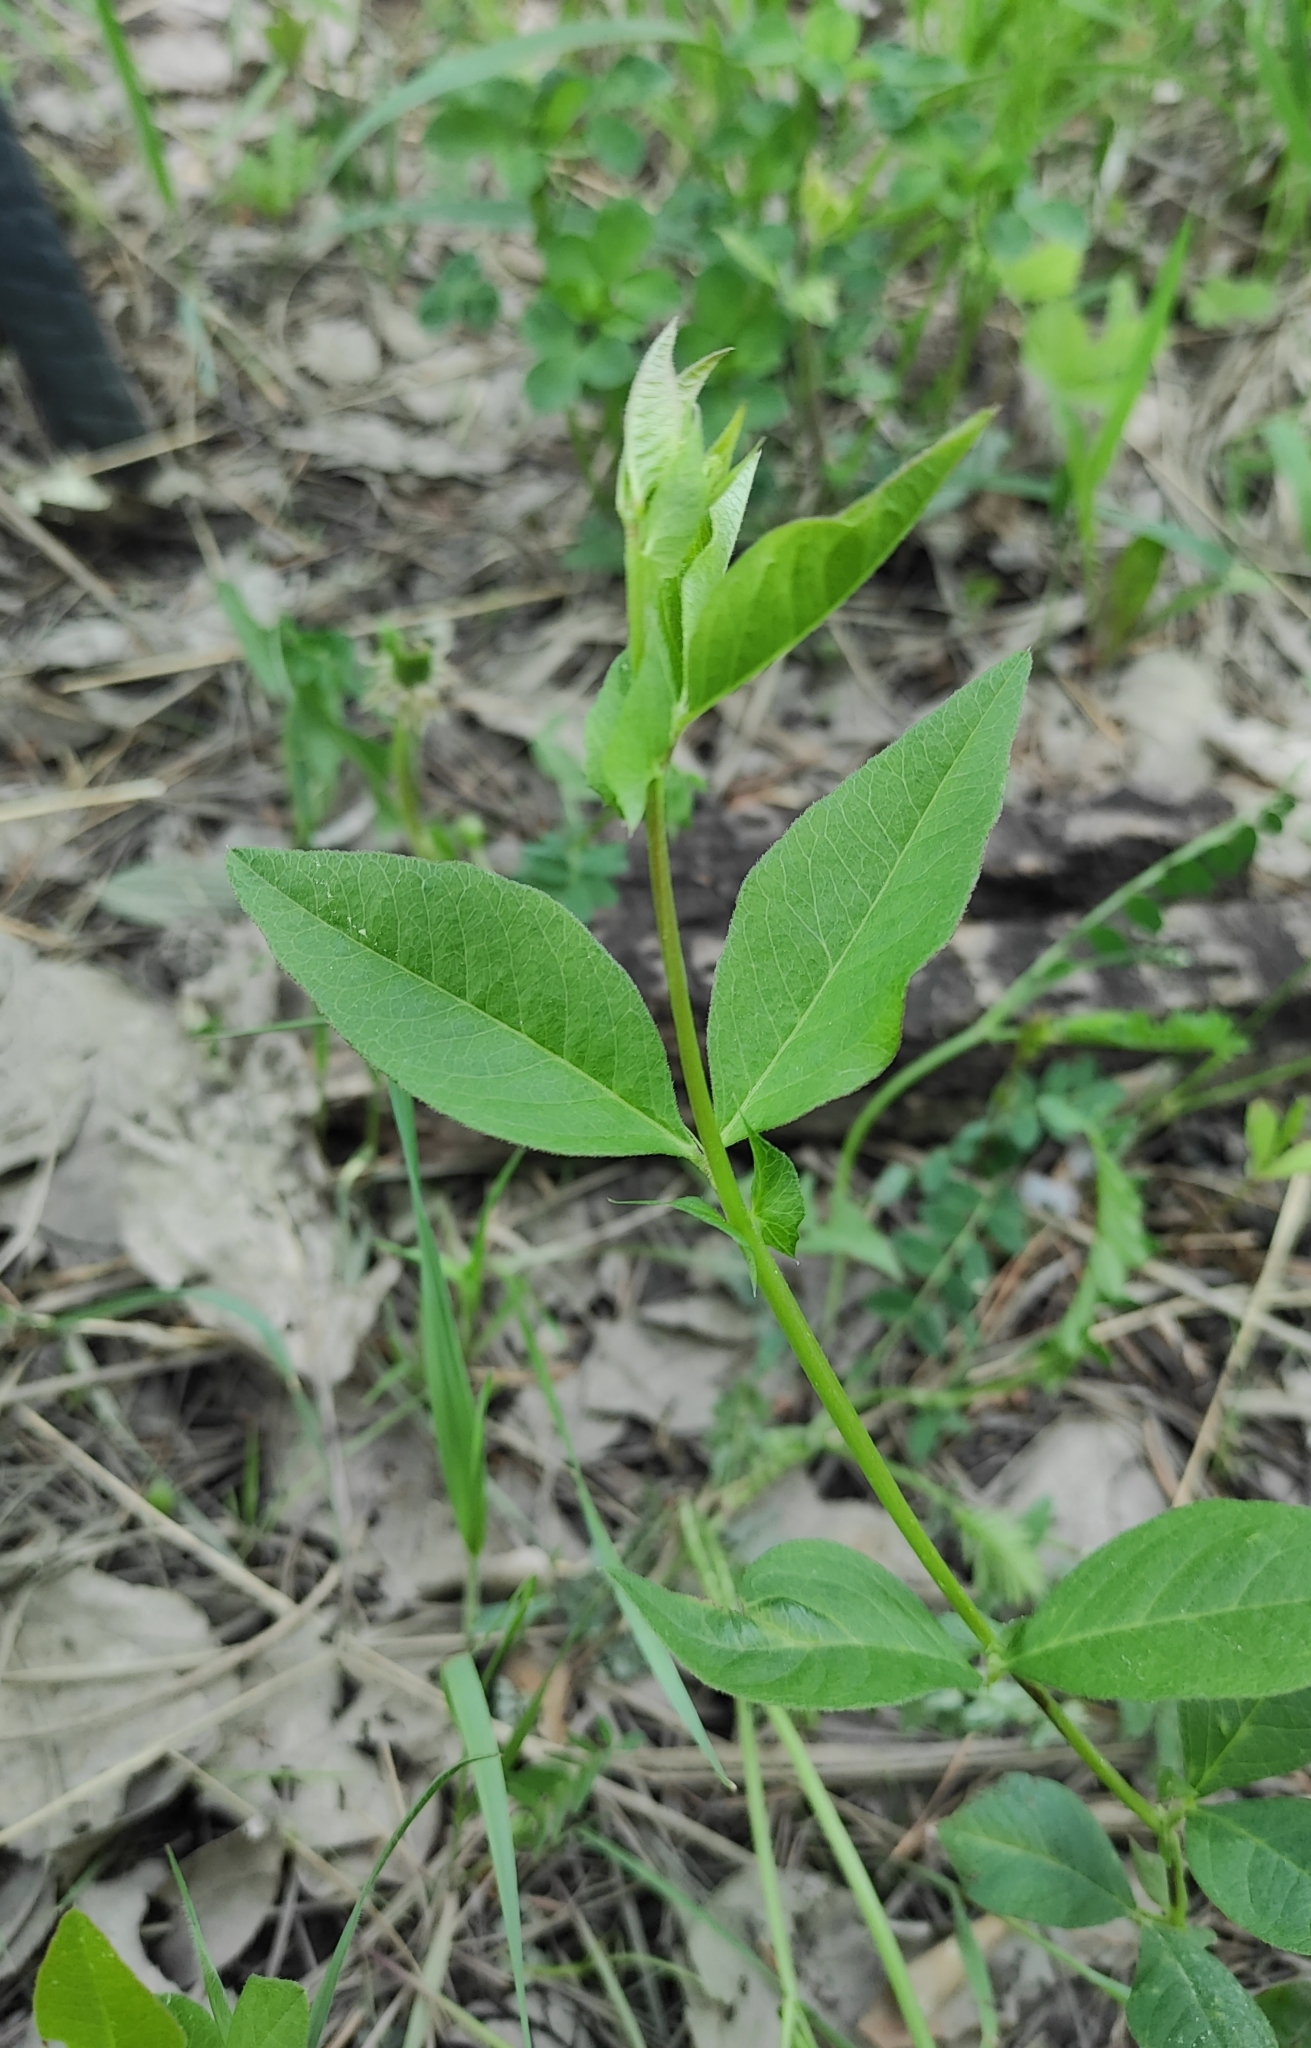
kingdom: Plantae
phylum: Tracheophyta
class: Magnoliopsida
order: Fabales
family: Fabaceae
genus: Vicia
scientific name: Vicia unijuga
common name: Two-leaf vetch
